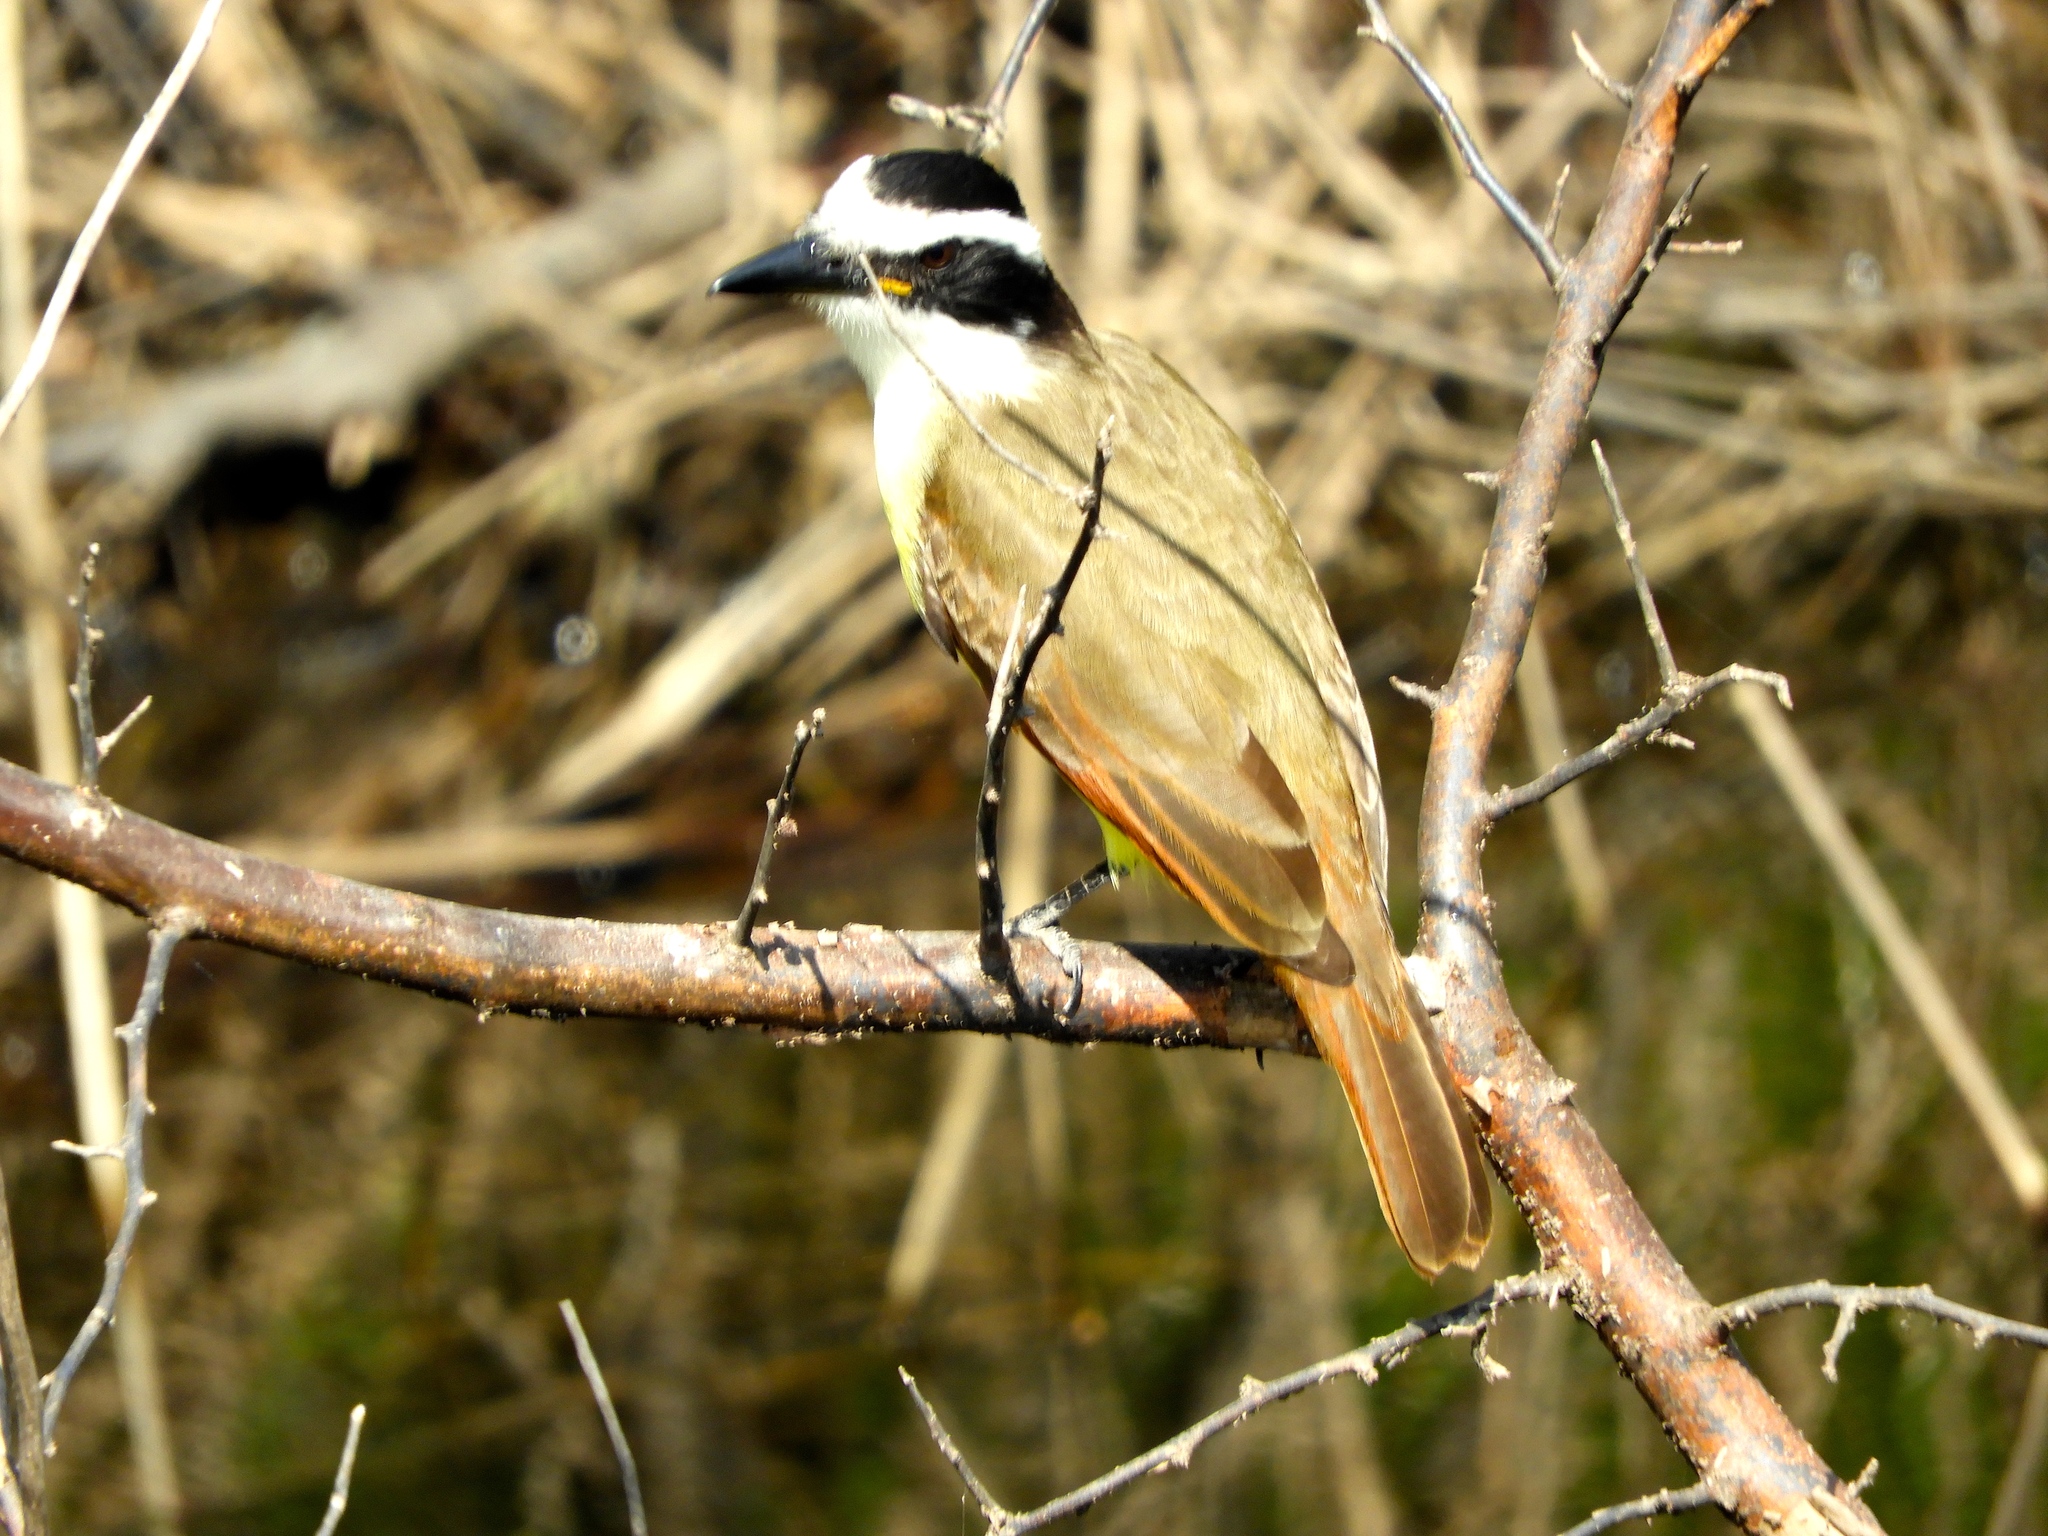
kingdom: Animalia
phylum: Chordata
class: Aves
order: Passeriformes
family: Tyrannidae
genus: Pitangus
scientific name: Pitangus sulphuratus
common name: Great kiskadee
